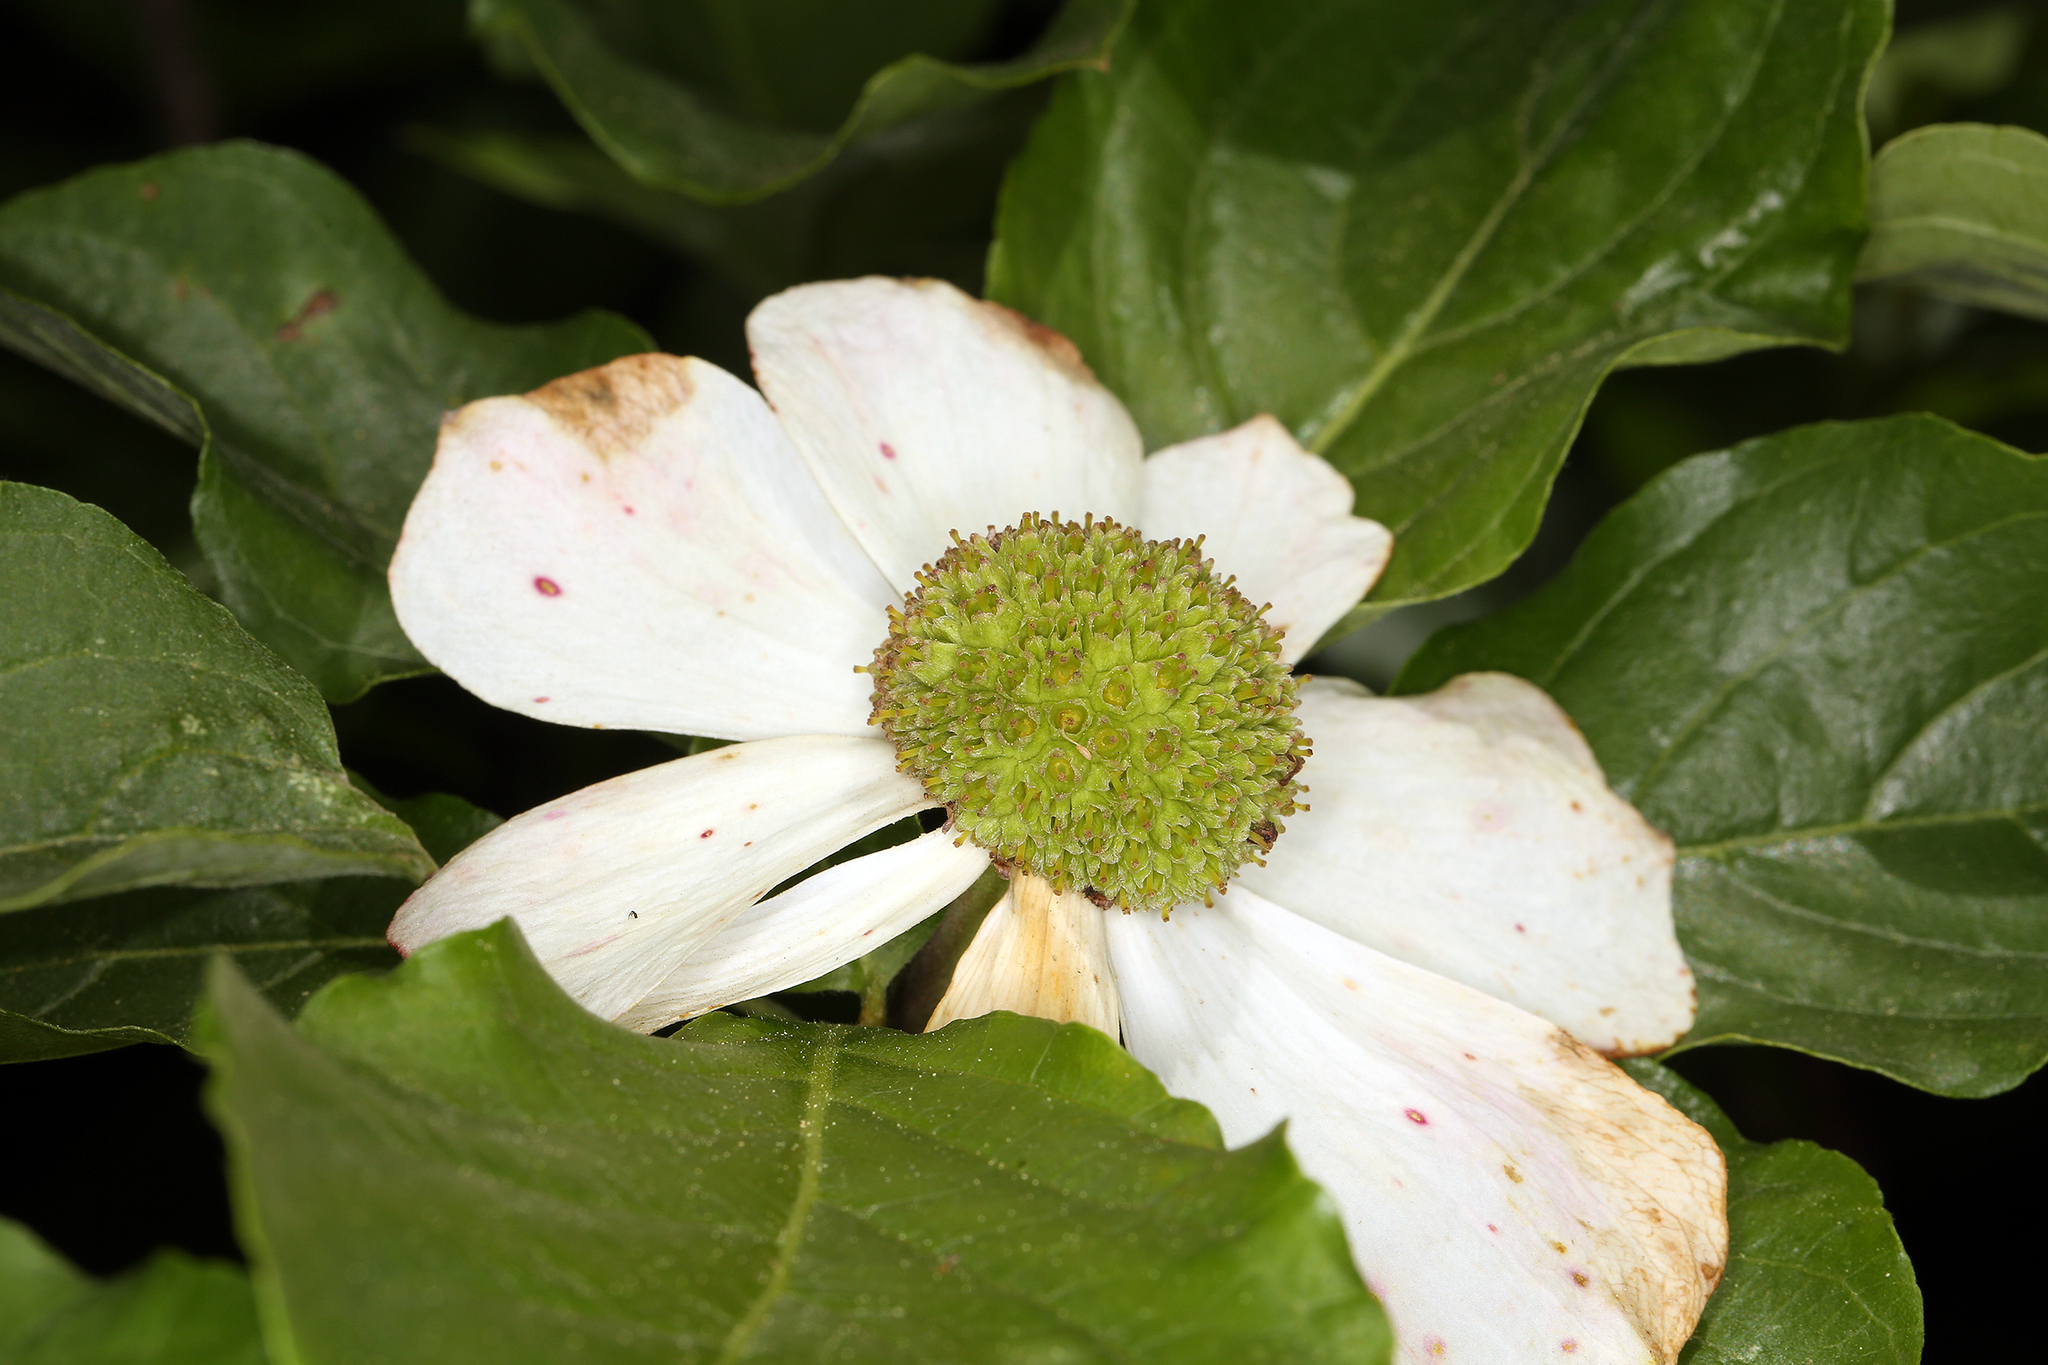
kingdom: Plantae
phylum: Tracheophyta
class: Magnoliopsida
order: Cornales
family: Cornaceae
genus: Cornus
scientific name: Cornus nuttallii
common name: Pacific dogwood
